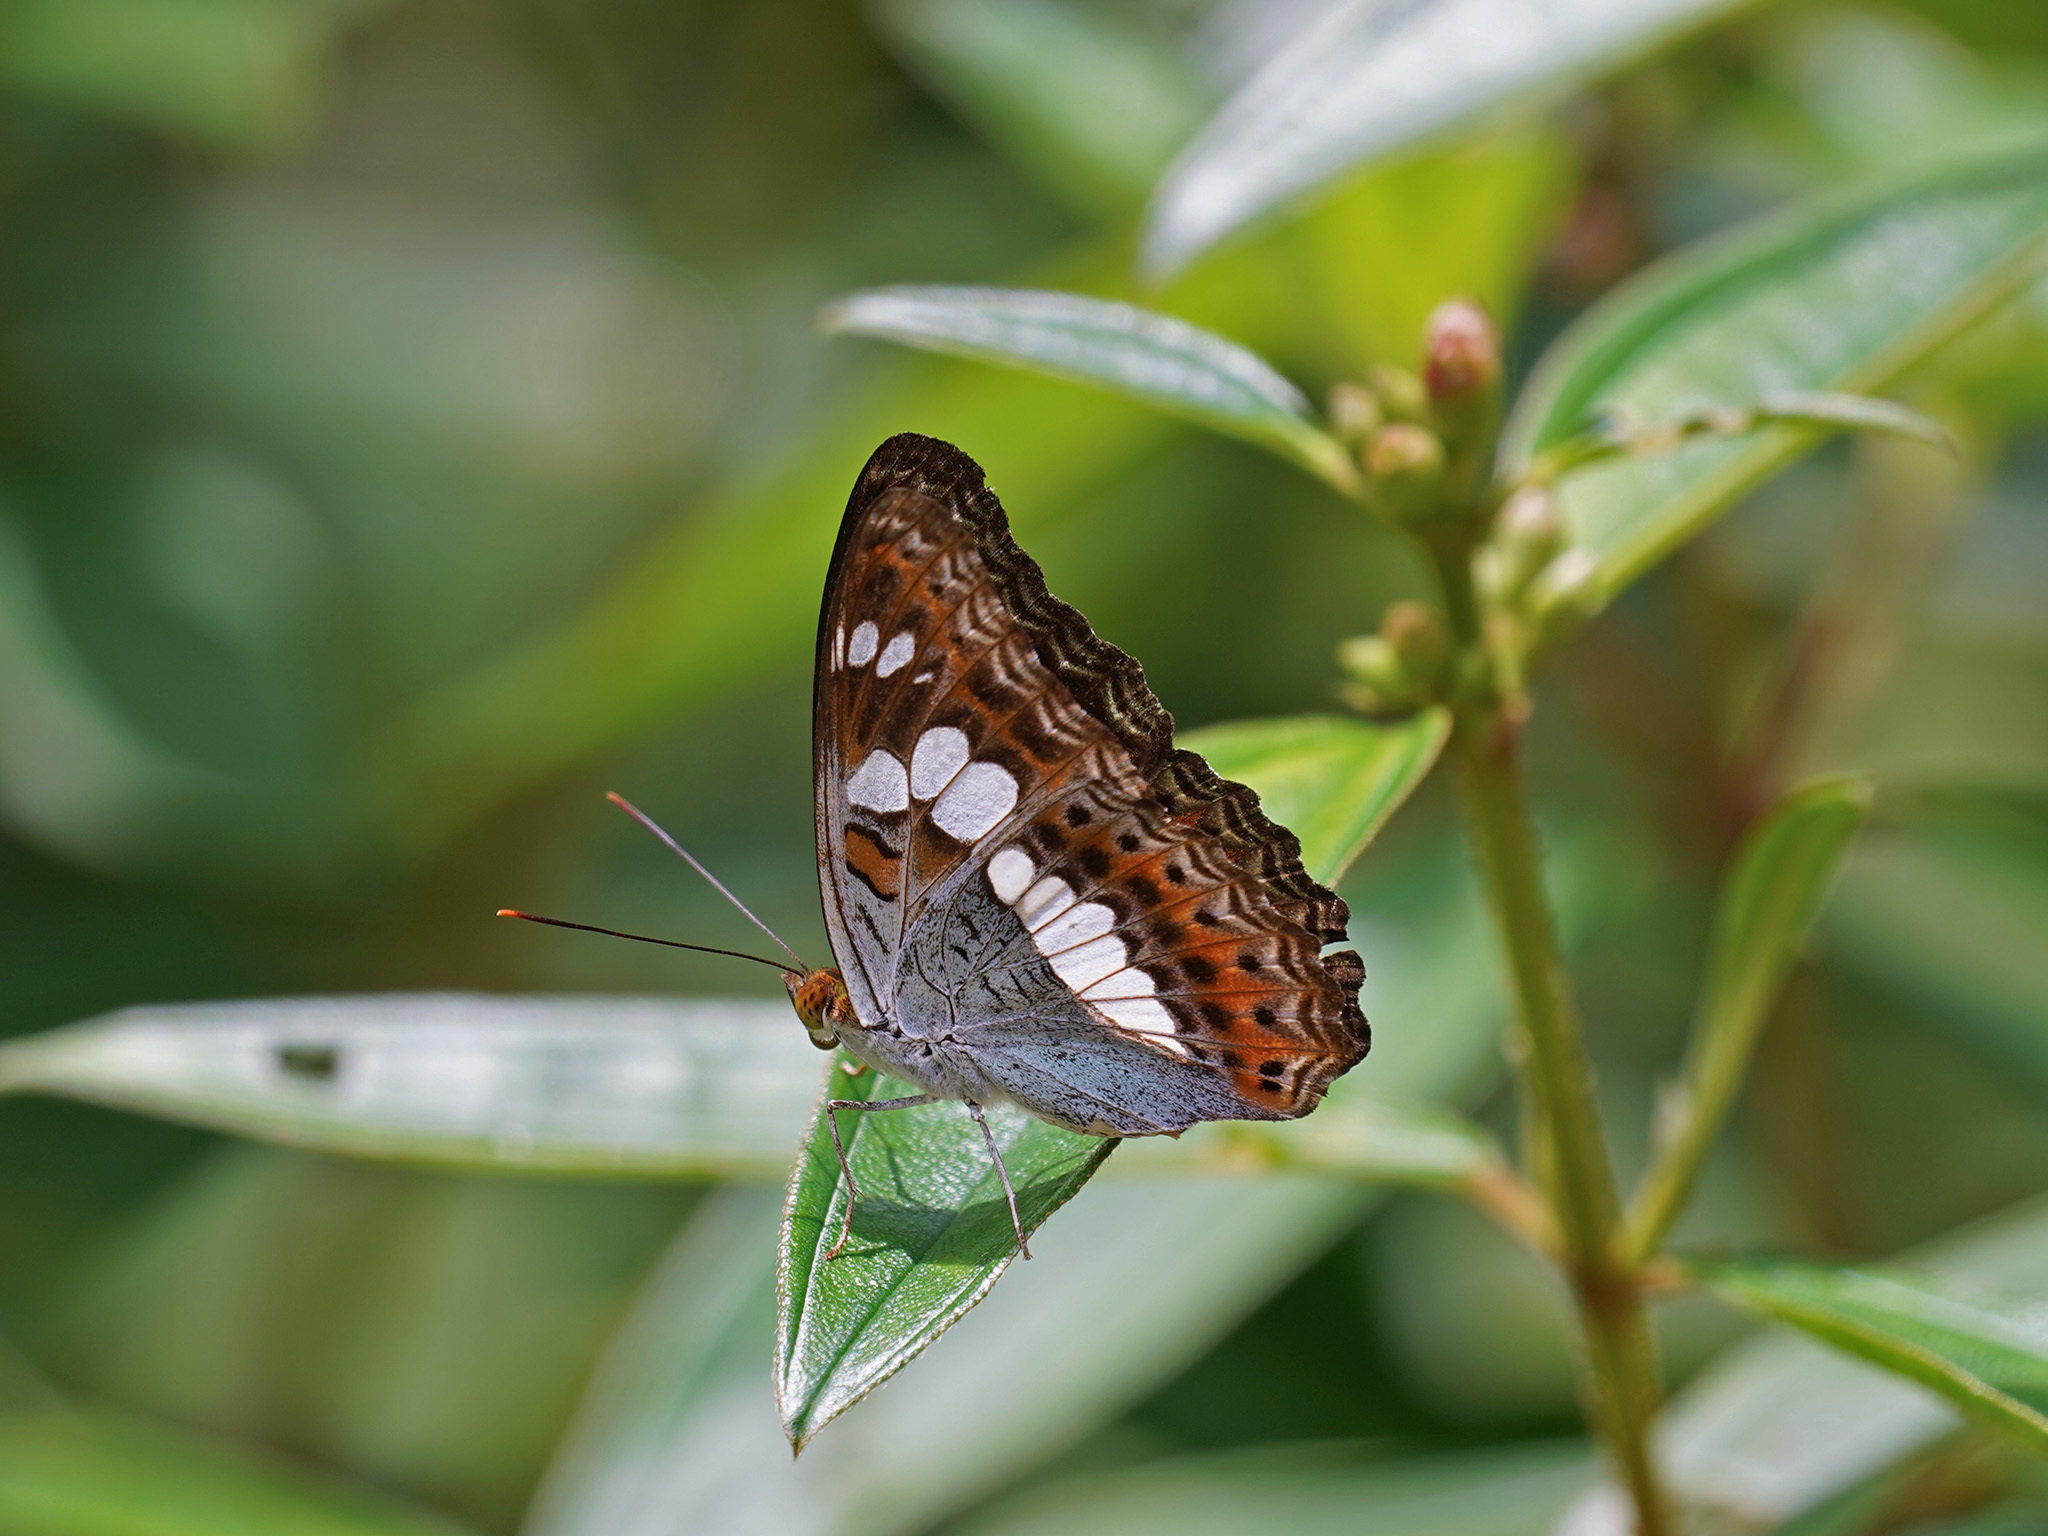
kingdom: Animalia
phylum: Arthropoda
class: Insecta
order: Lepidoptera
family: Nymphalidae
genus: Limenitis
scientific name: Limenitis Moduza procris
